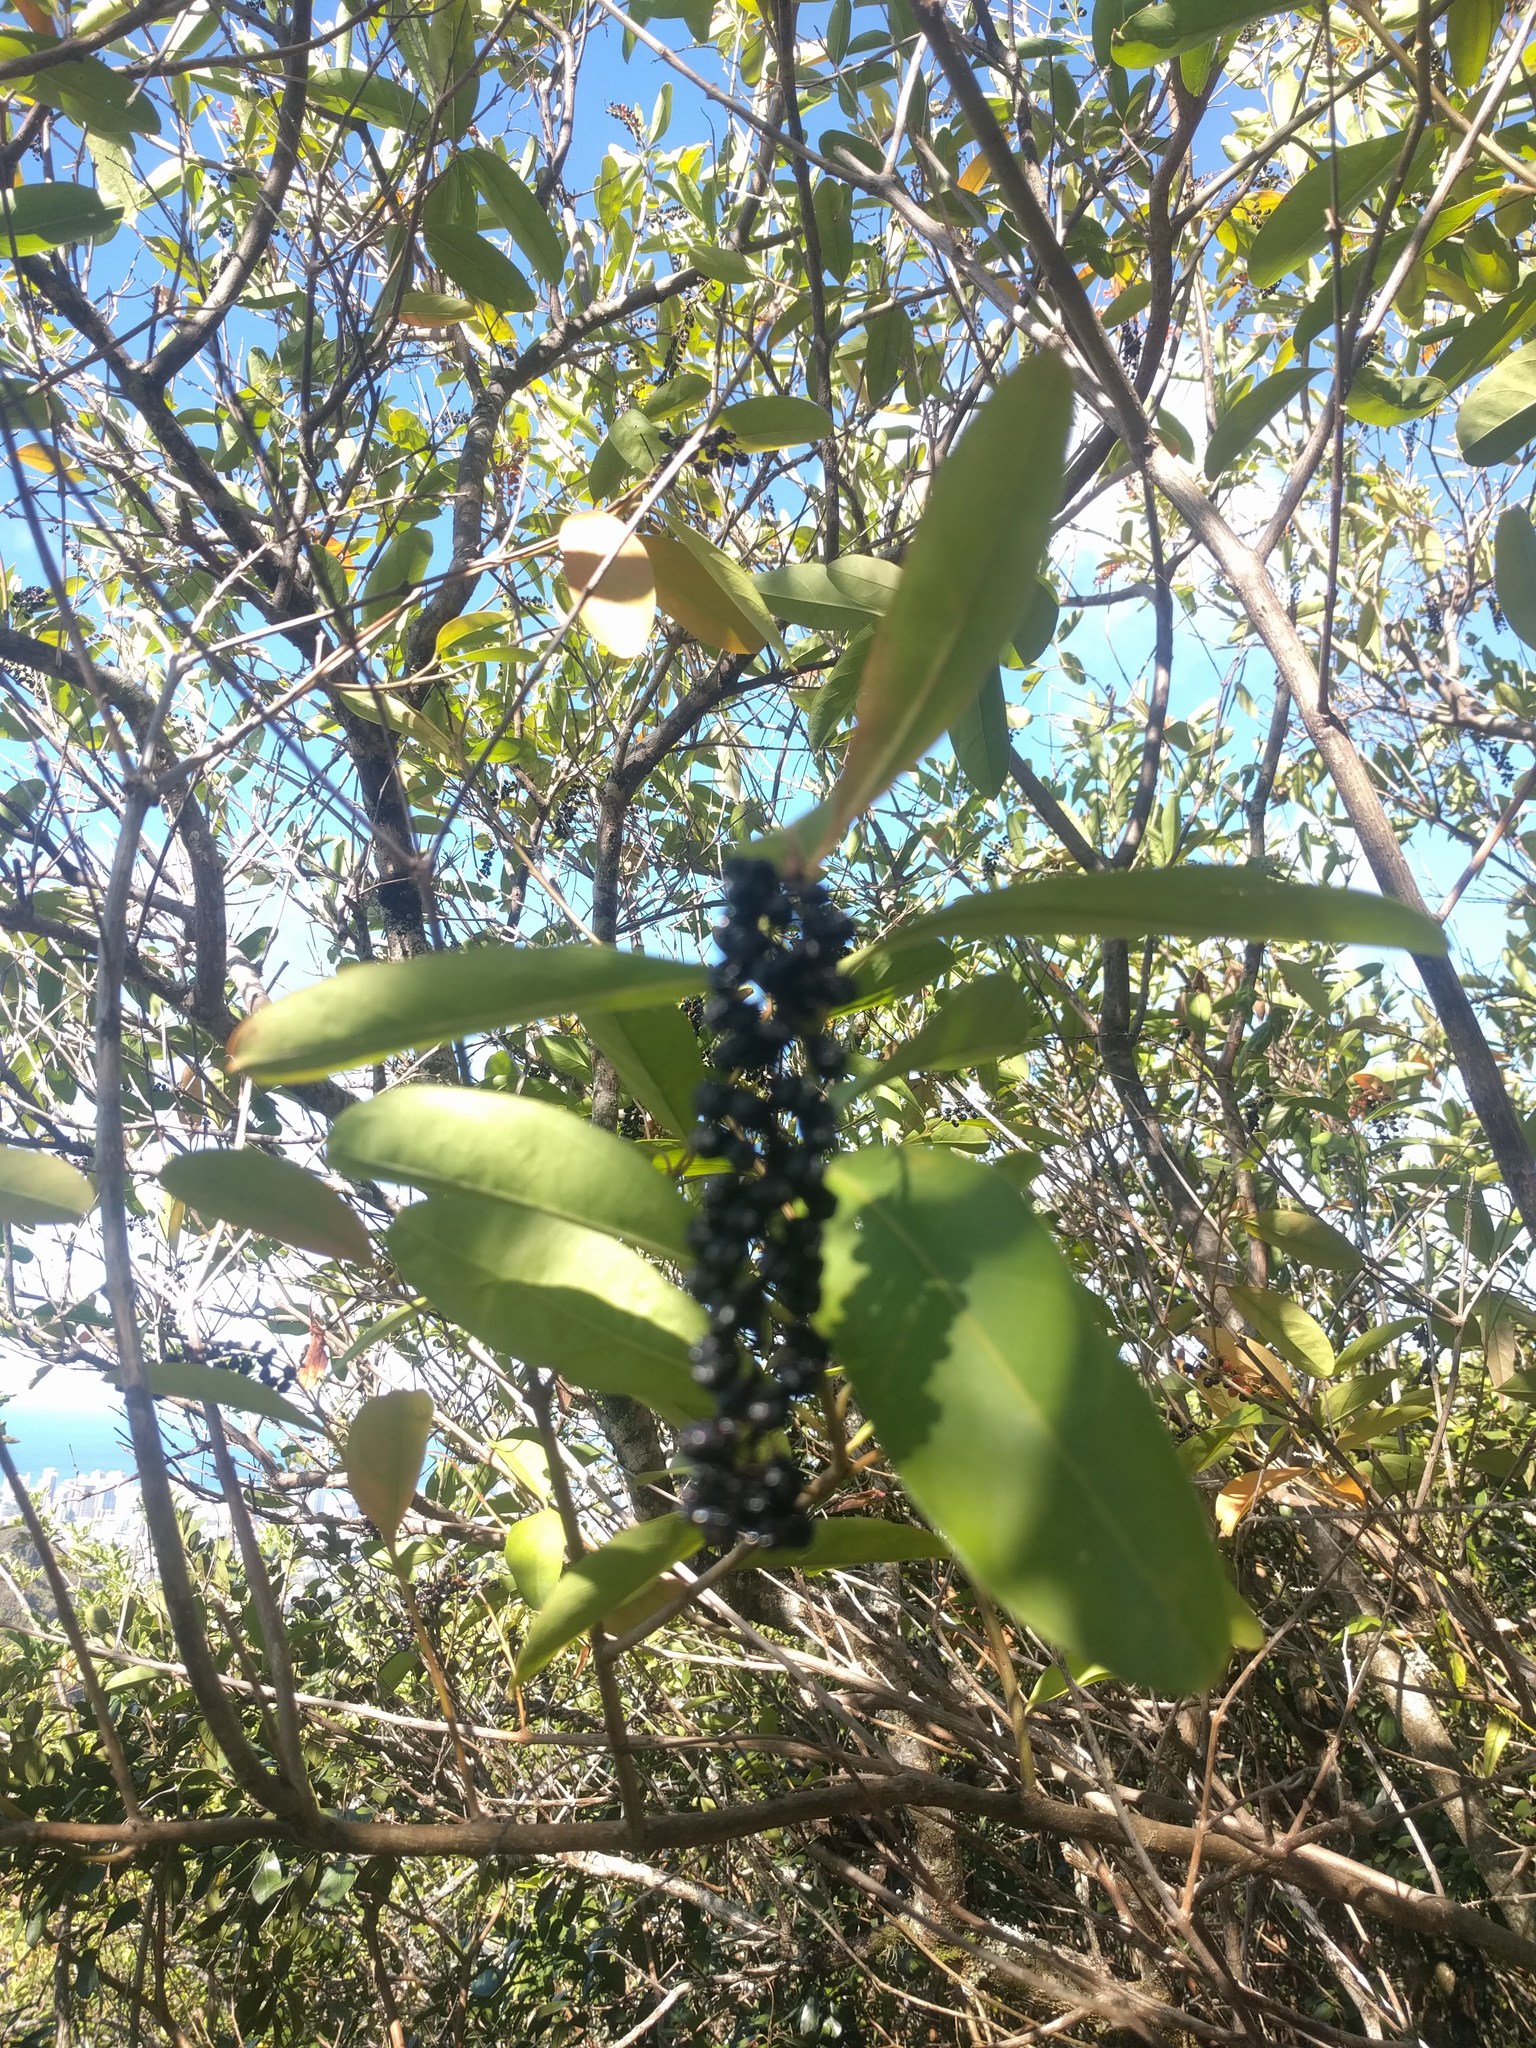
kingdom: Plantae
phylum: Tracheophyta
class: Magnoliopsida
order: Lamiales
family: Verbenaceae
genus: Citharexylum
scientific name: Citharexylum caudatum
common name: Fiddlewood
